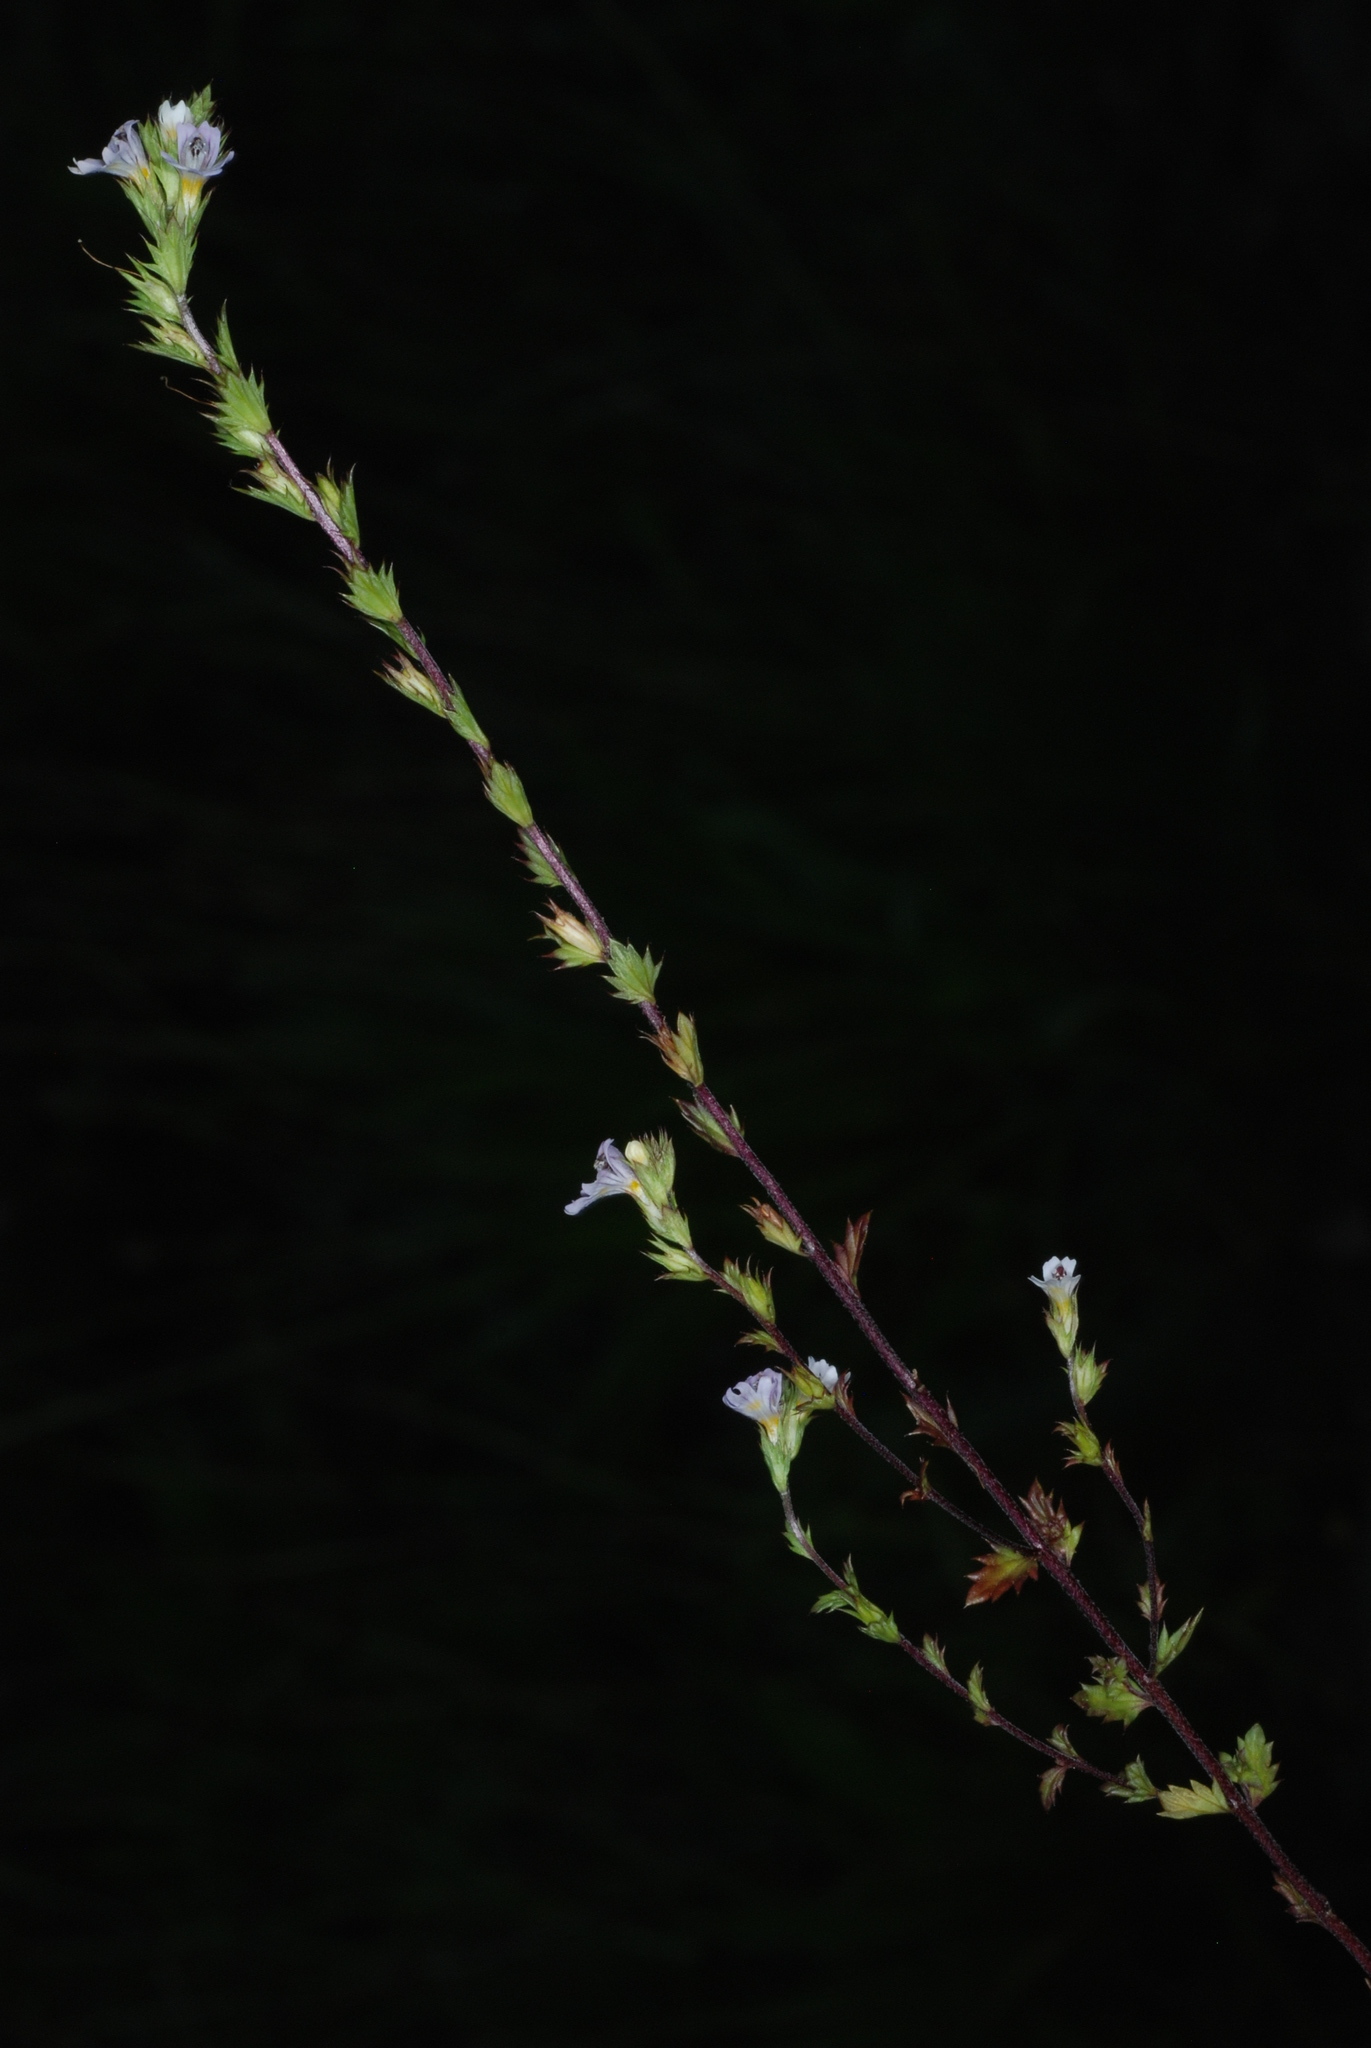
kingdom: Plantae
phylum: Tracheophyta
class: Magnoliopsida
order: Lamiales
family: Orobanchaceae
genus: Euphrasia
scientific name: Euphrasia stricta
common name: Drug eyebright
